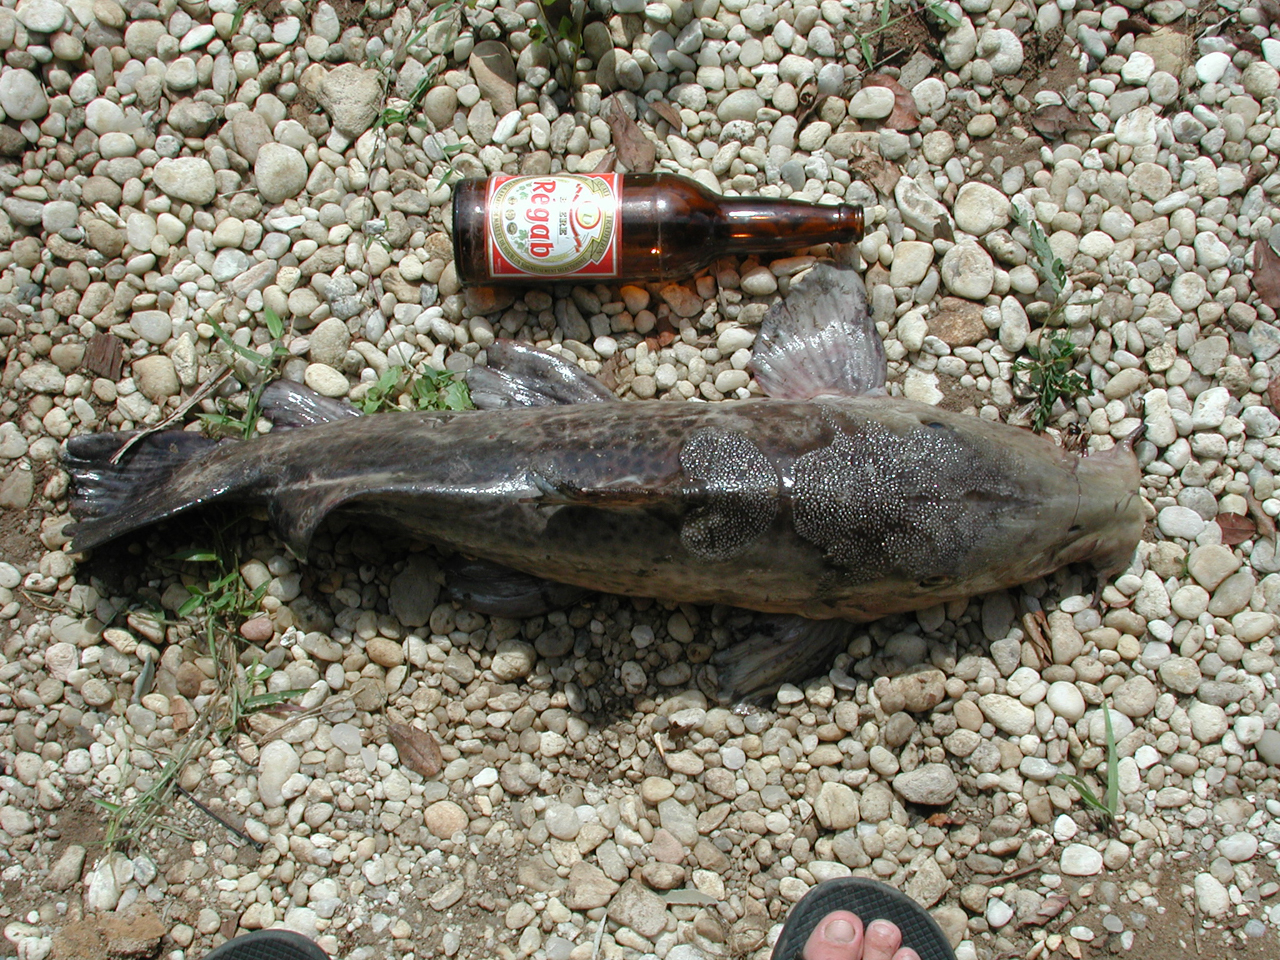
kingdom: Animalia
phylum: Chordata
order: Siluriformes
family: Claroteidae
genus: Auchenoglanis
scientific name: Auchenoglanis occidentalis
